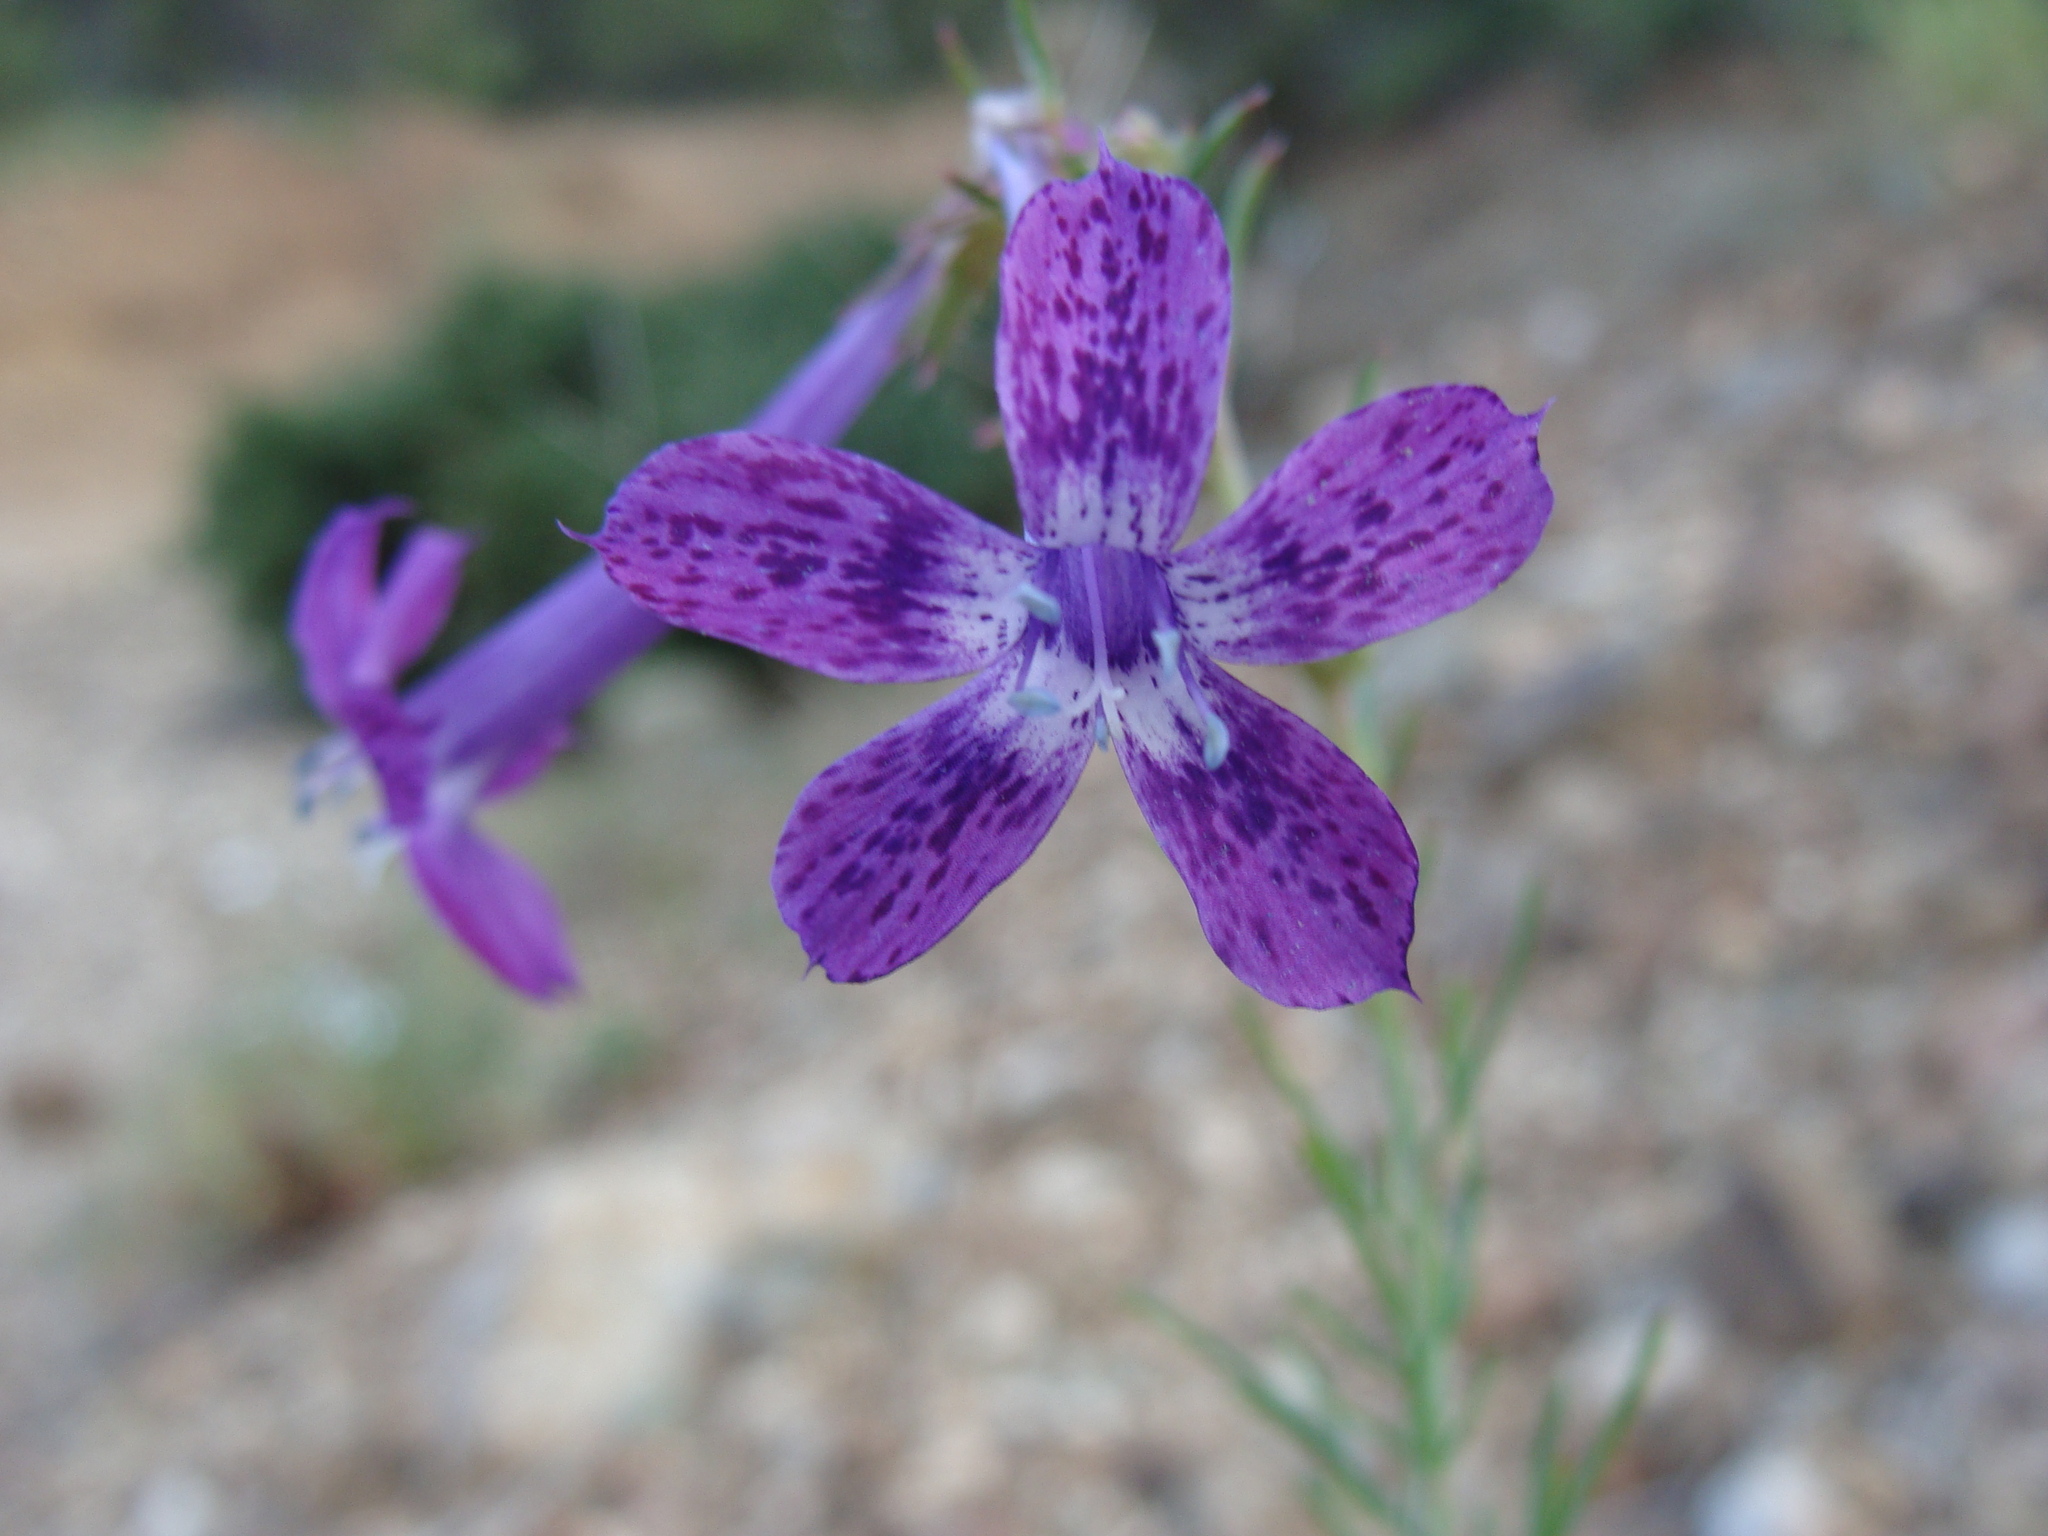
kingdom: Plantae
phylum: Tracheophyta
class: Magnoliopsida
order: Ericales
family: Polemoniaceae
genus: Ipomopsis
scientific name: Ipomopsis thurberi
